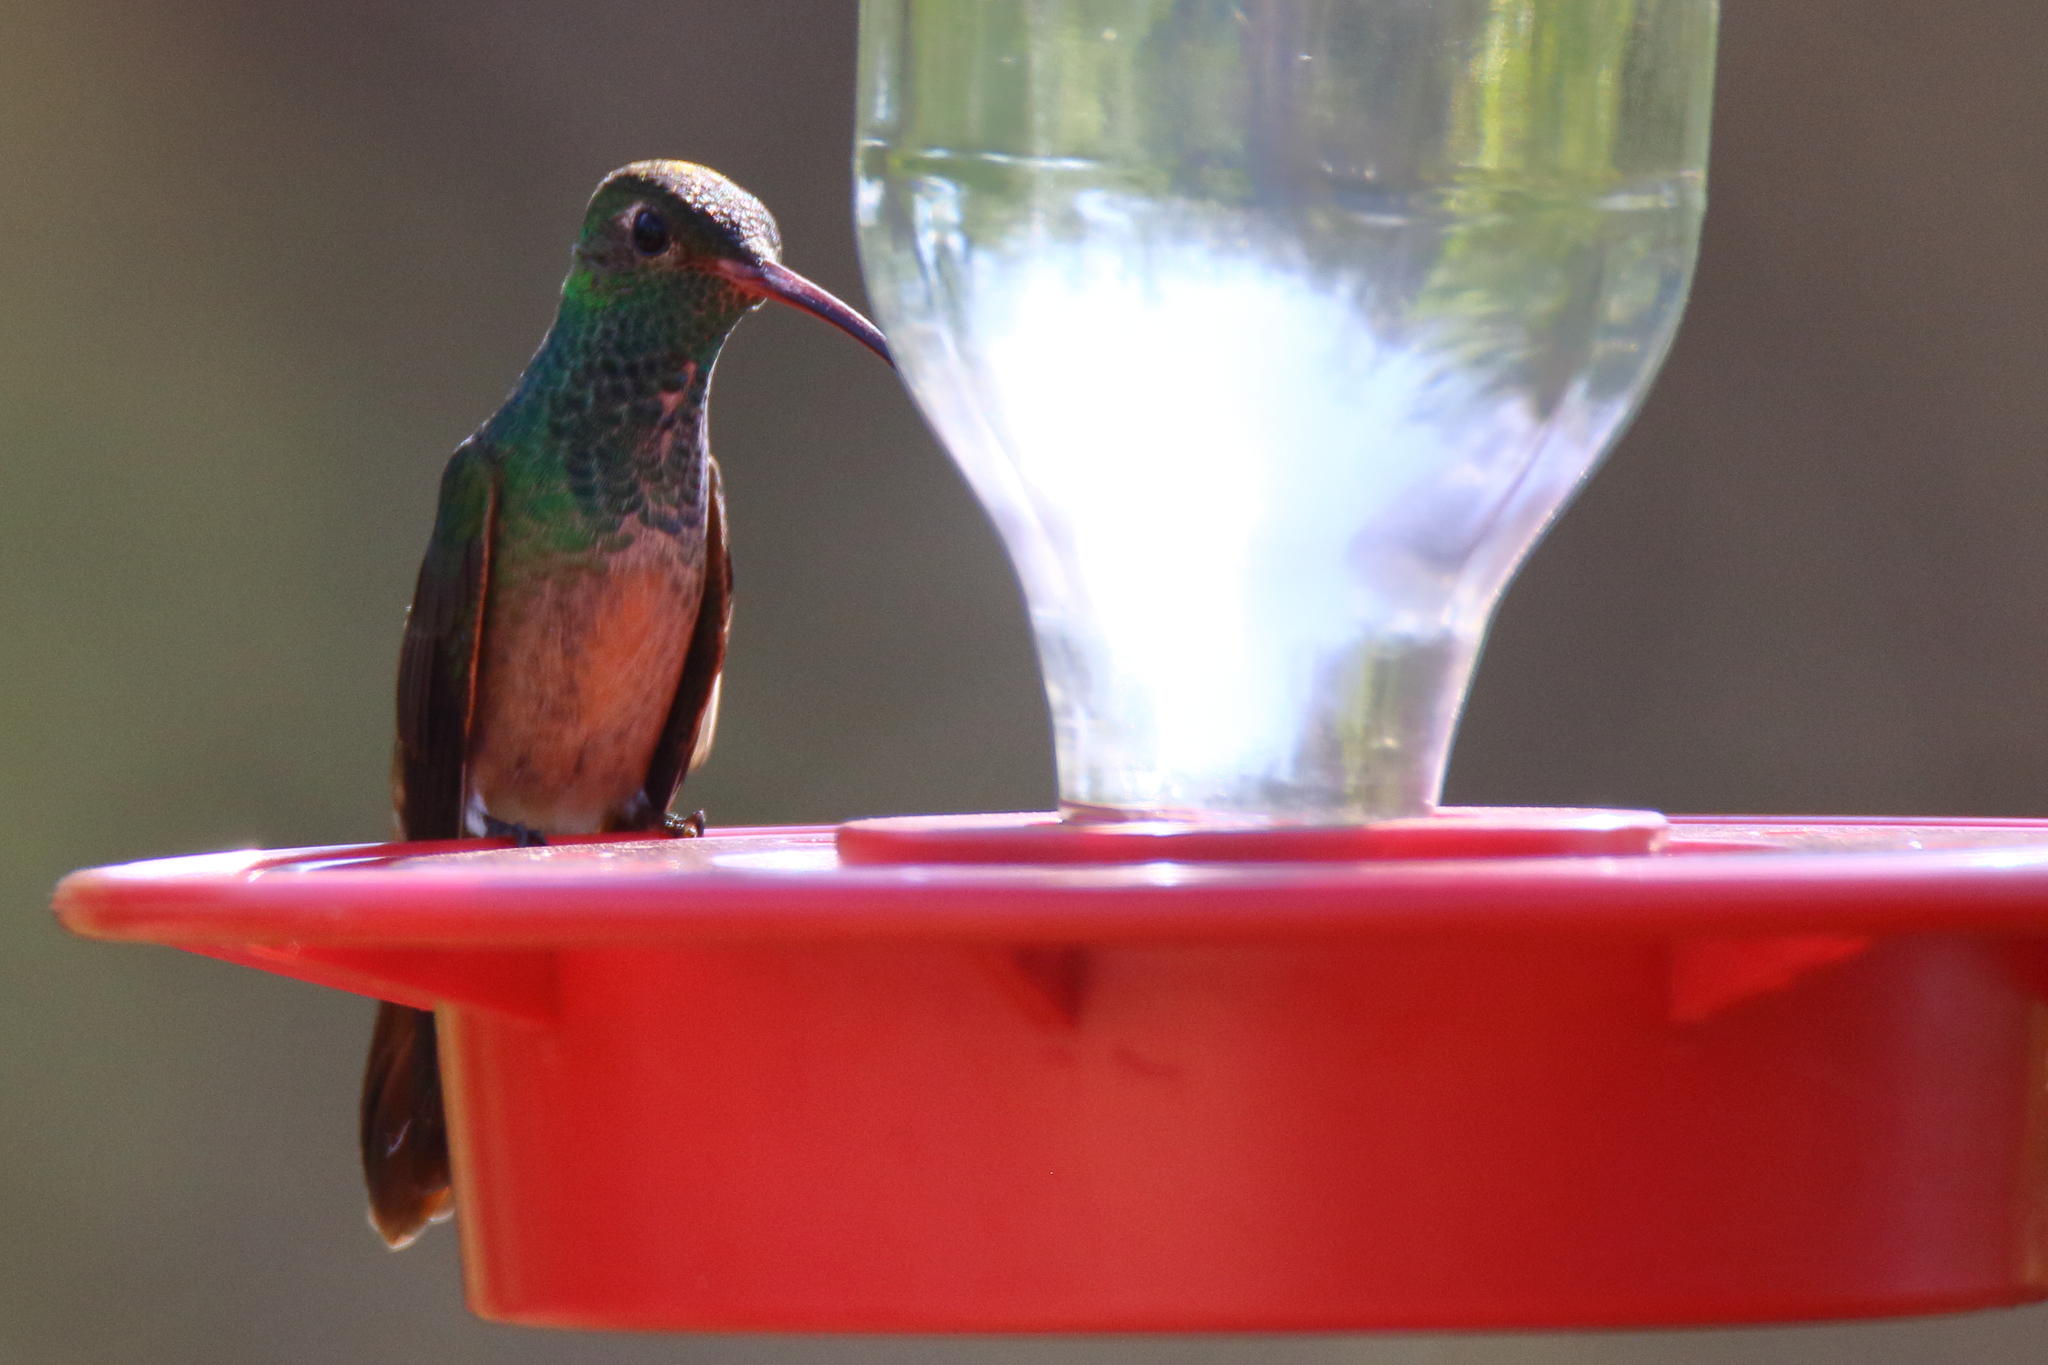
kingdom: Animalia
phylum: Chordata
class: Aves
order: Apodiformes
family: Trochilidae
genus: Amazilia
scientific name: Amazilia yucatanensis
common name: Buff-bellied hummingbird
